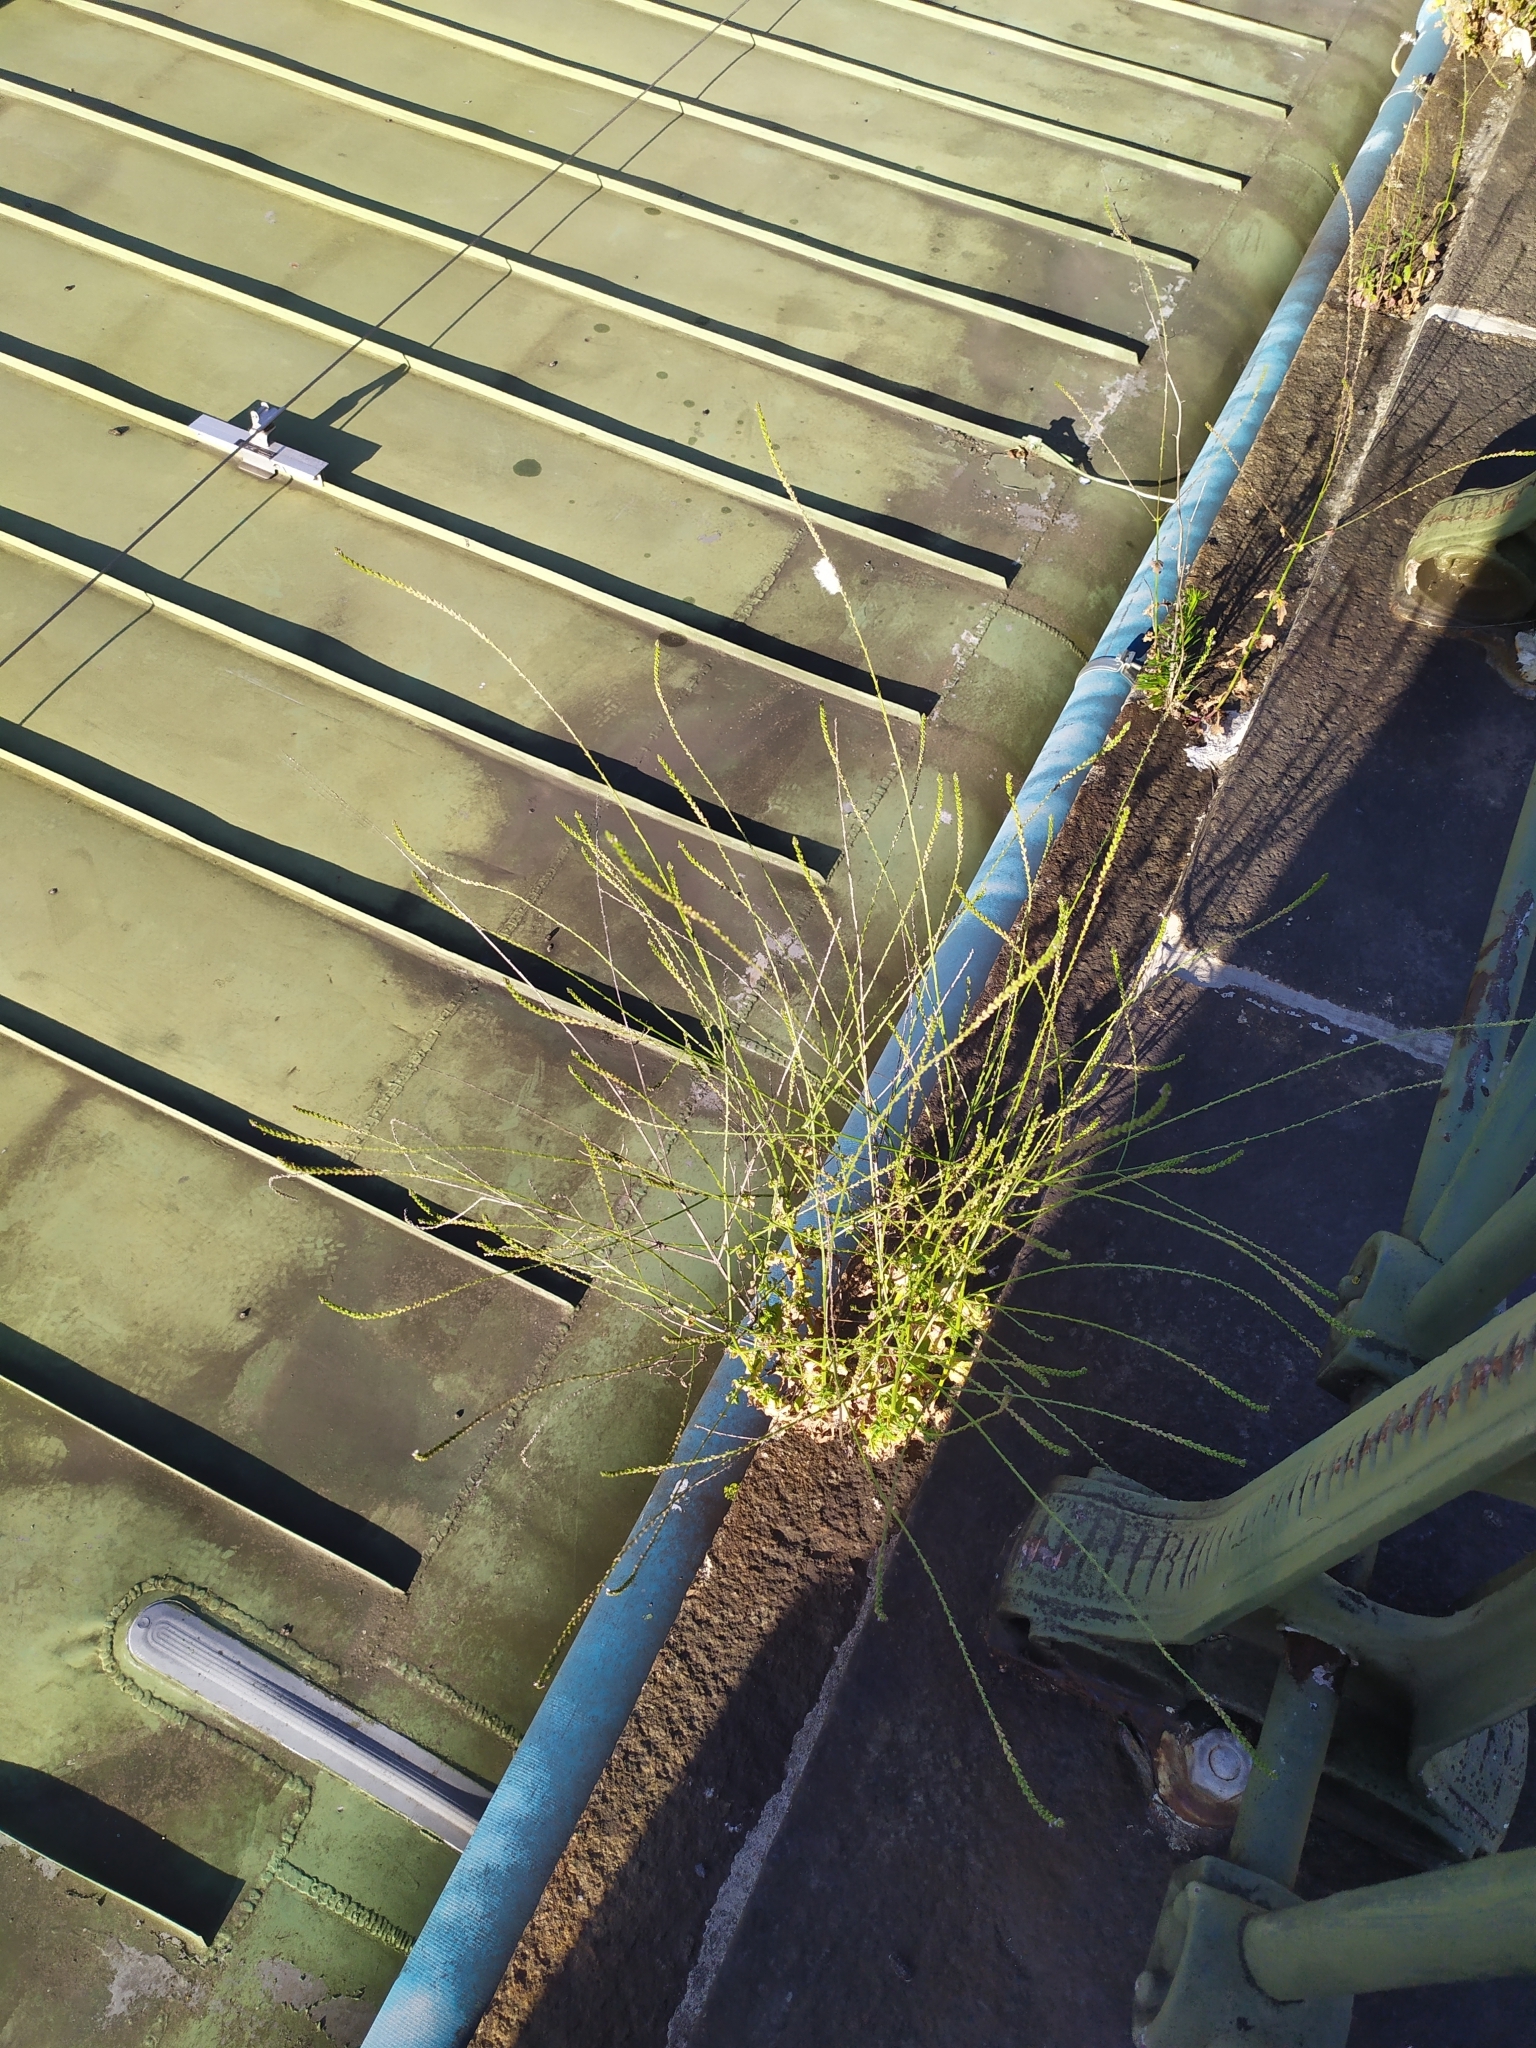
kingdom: Plantae
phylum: Tracheophyta
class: Magnoliopsida
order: Lamiales
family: Verbenaceae
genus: Verbena
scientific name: Verbena officinalis
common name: Vervain
